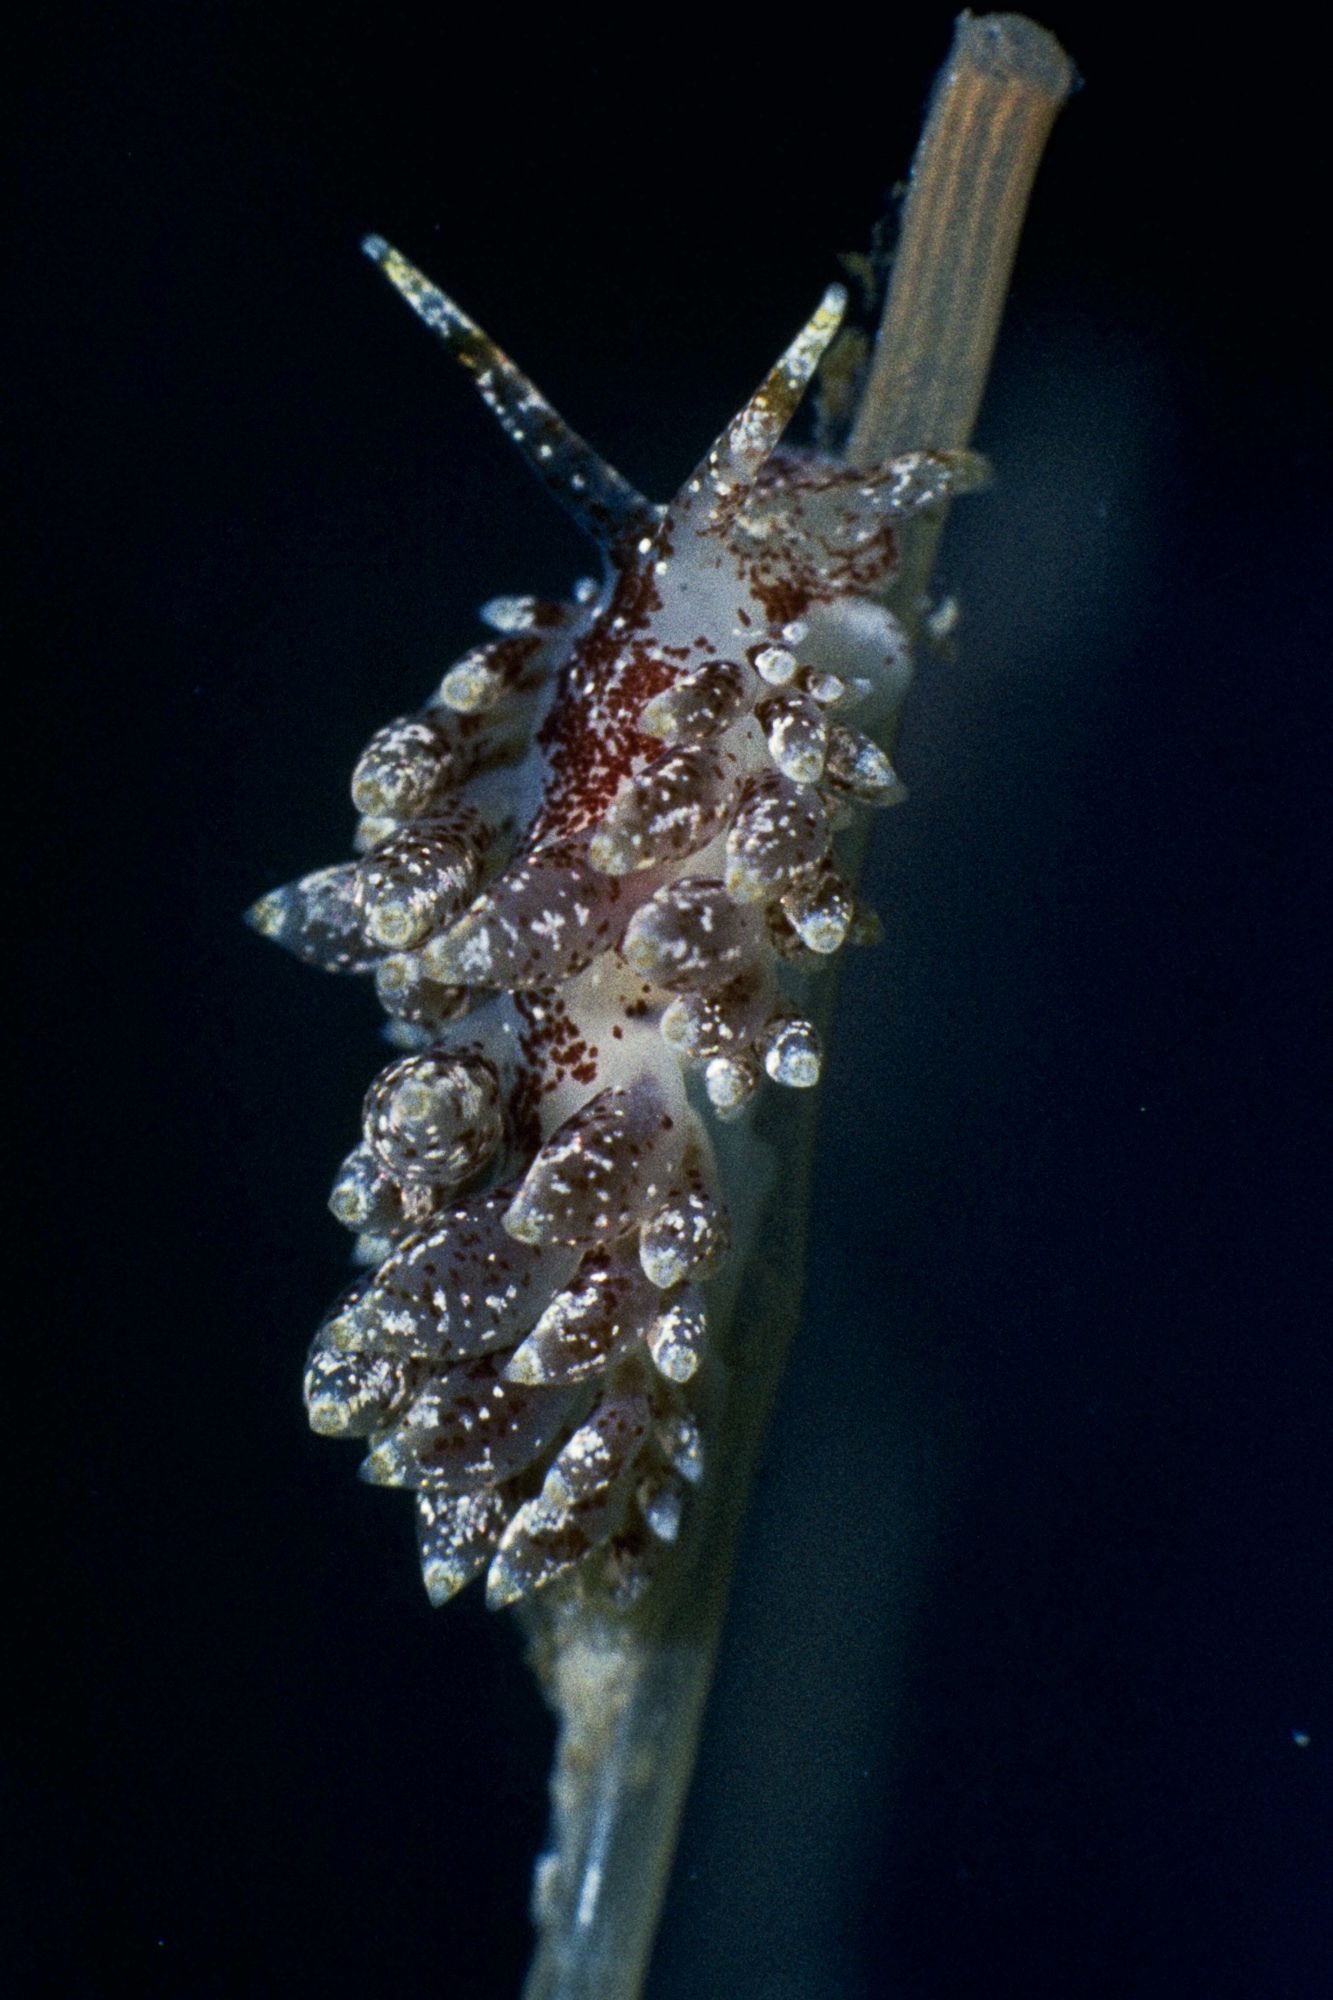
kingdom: Animalia
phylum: Mollusca
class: Gastropoda
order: Nudibranchia
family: Eubranchidae
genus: Amphorina
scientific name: Amphorina pallida
